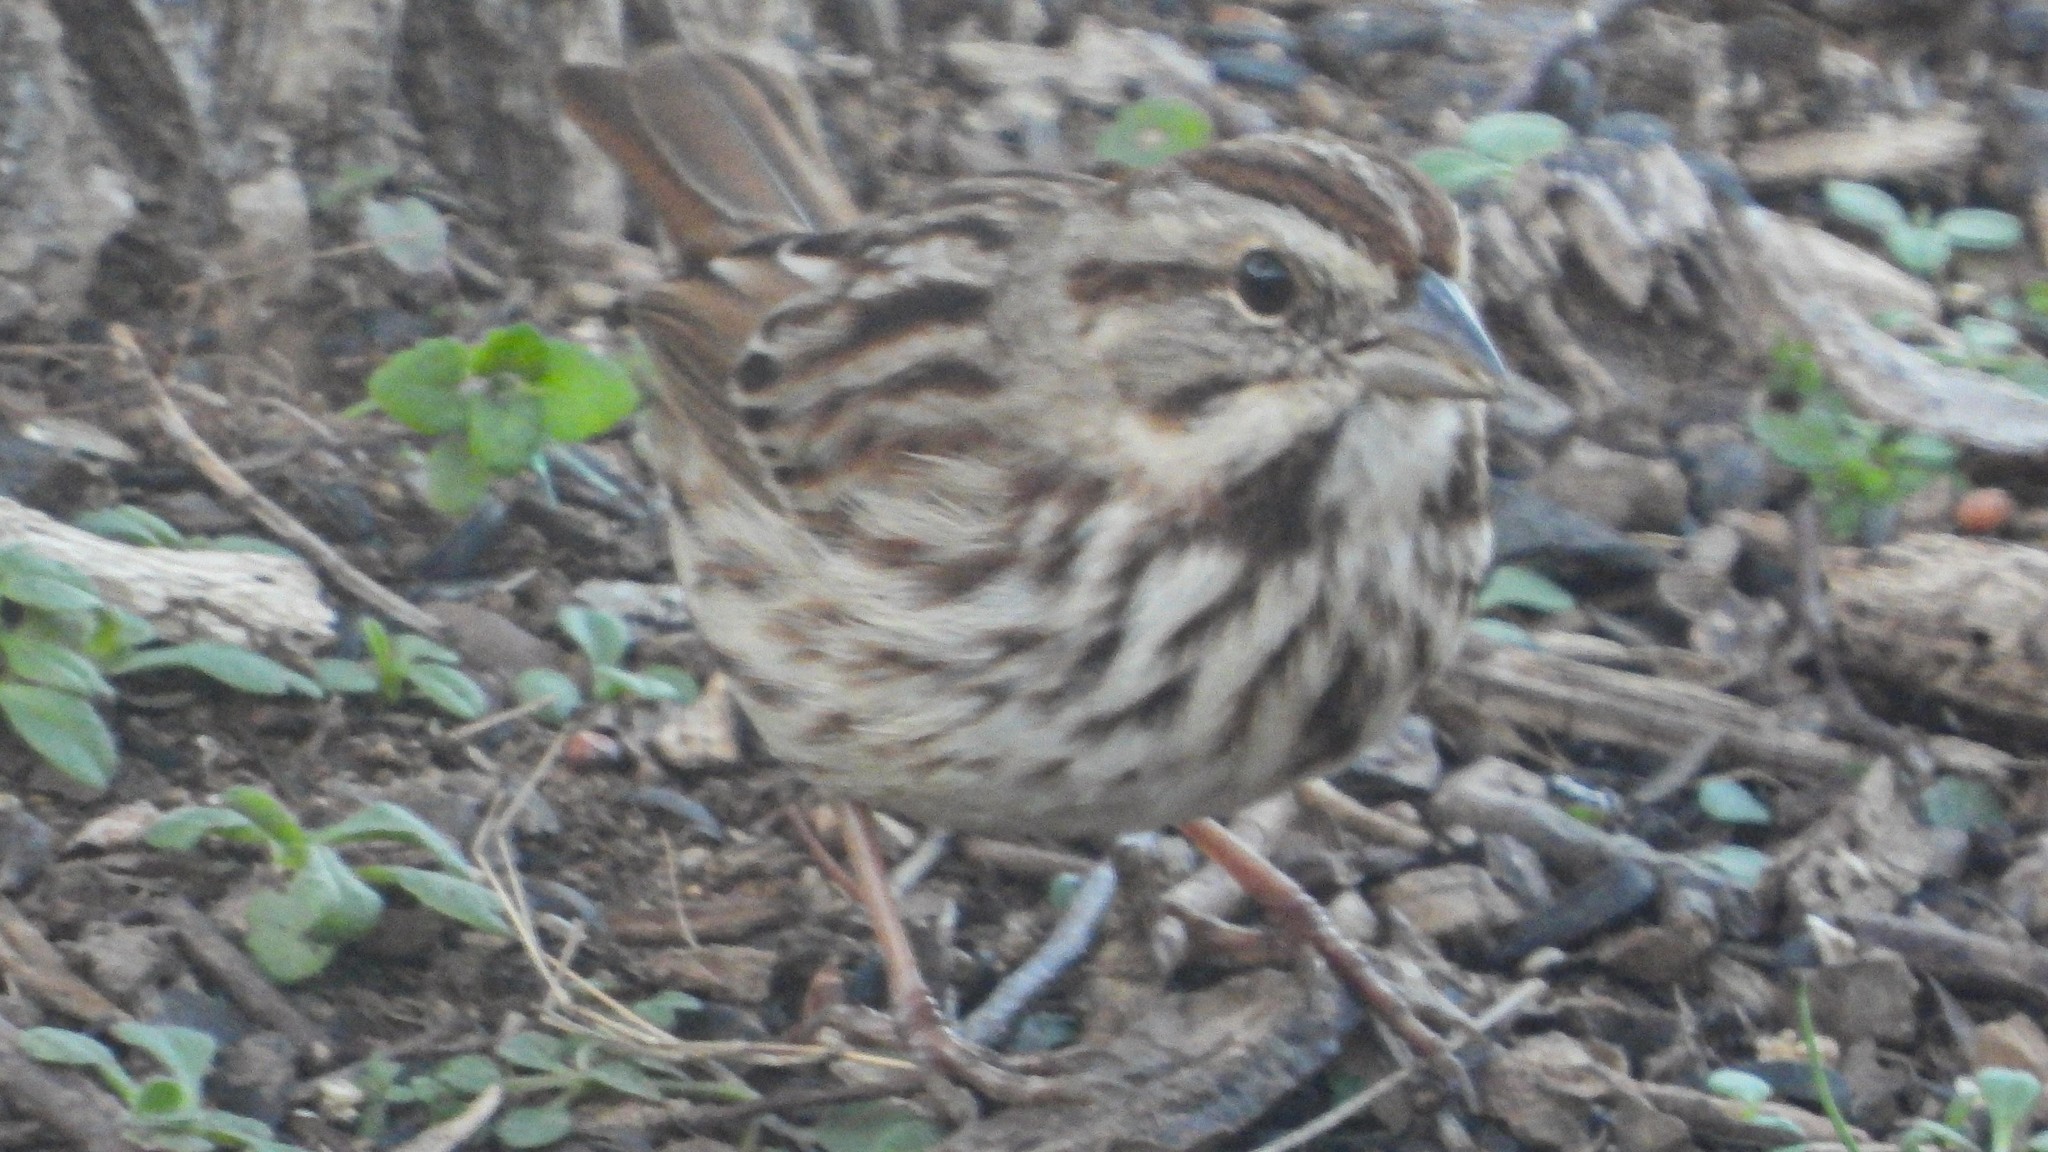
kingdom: Animalia
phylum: Chordata
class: Aves
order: Passeriformes
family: Passerellidae
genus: Melospiza
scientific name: Melospiza melodia
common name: Song sparrow
